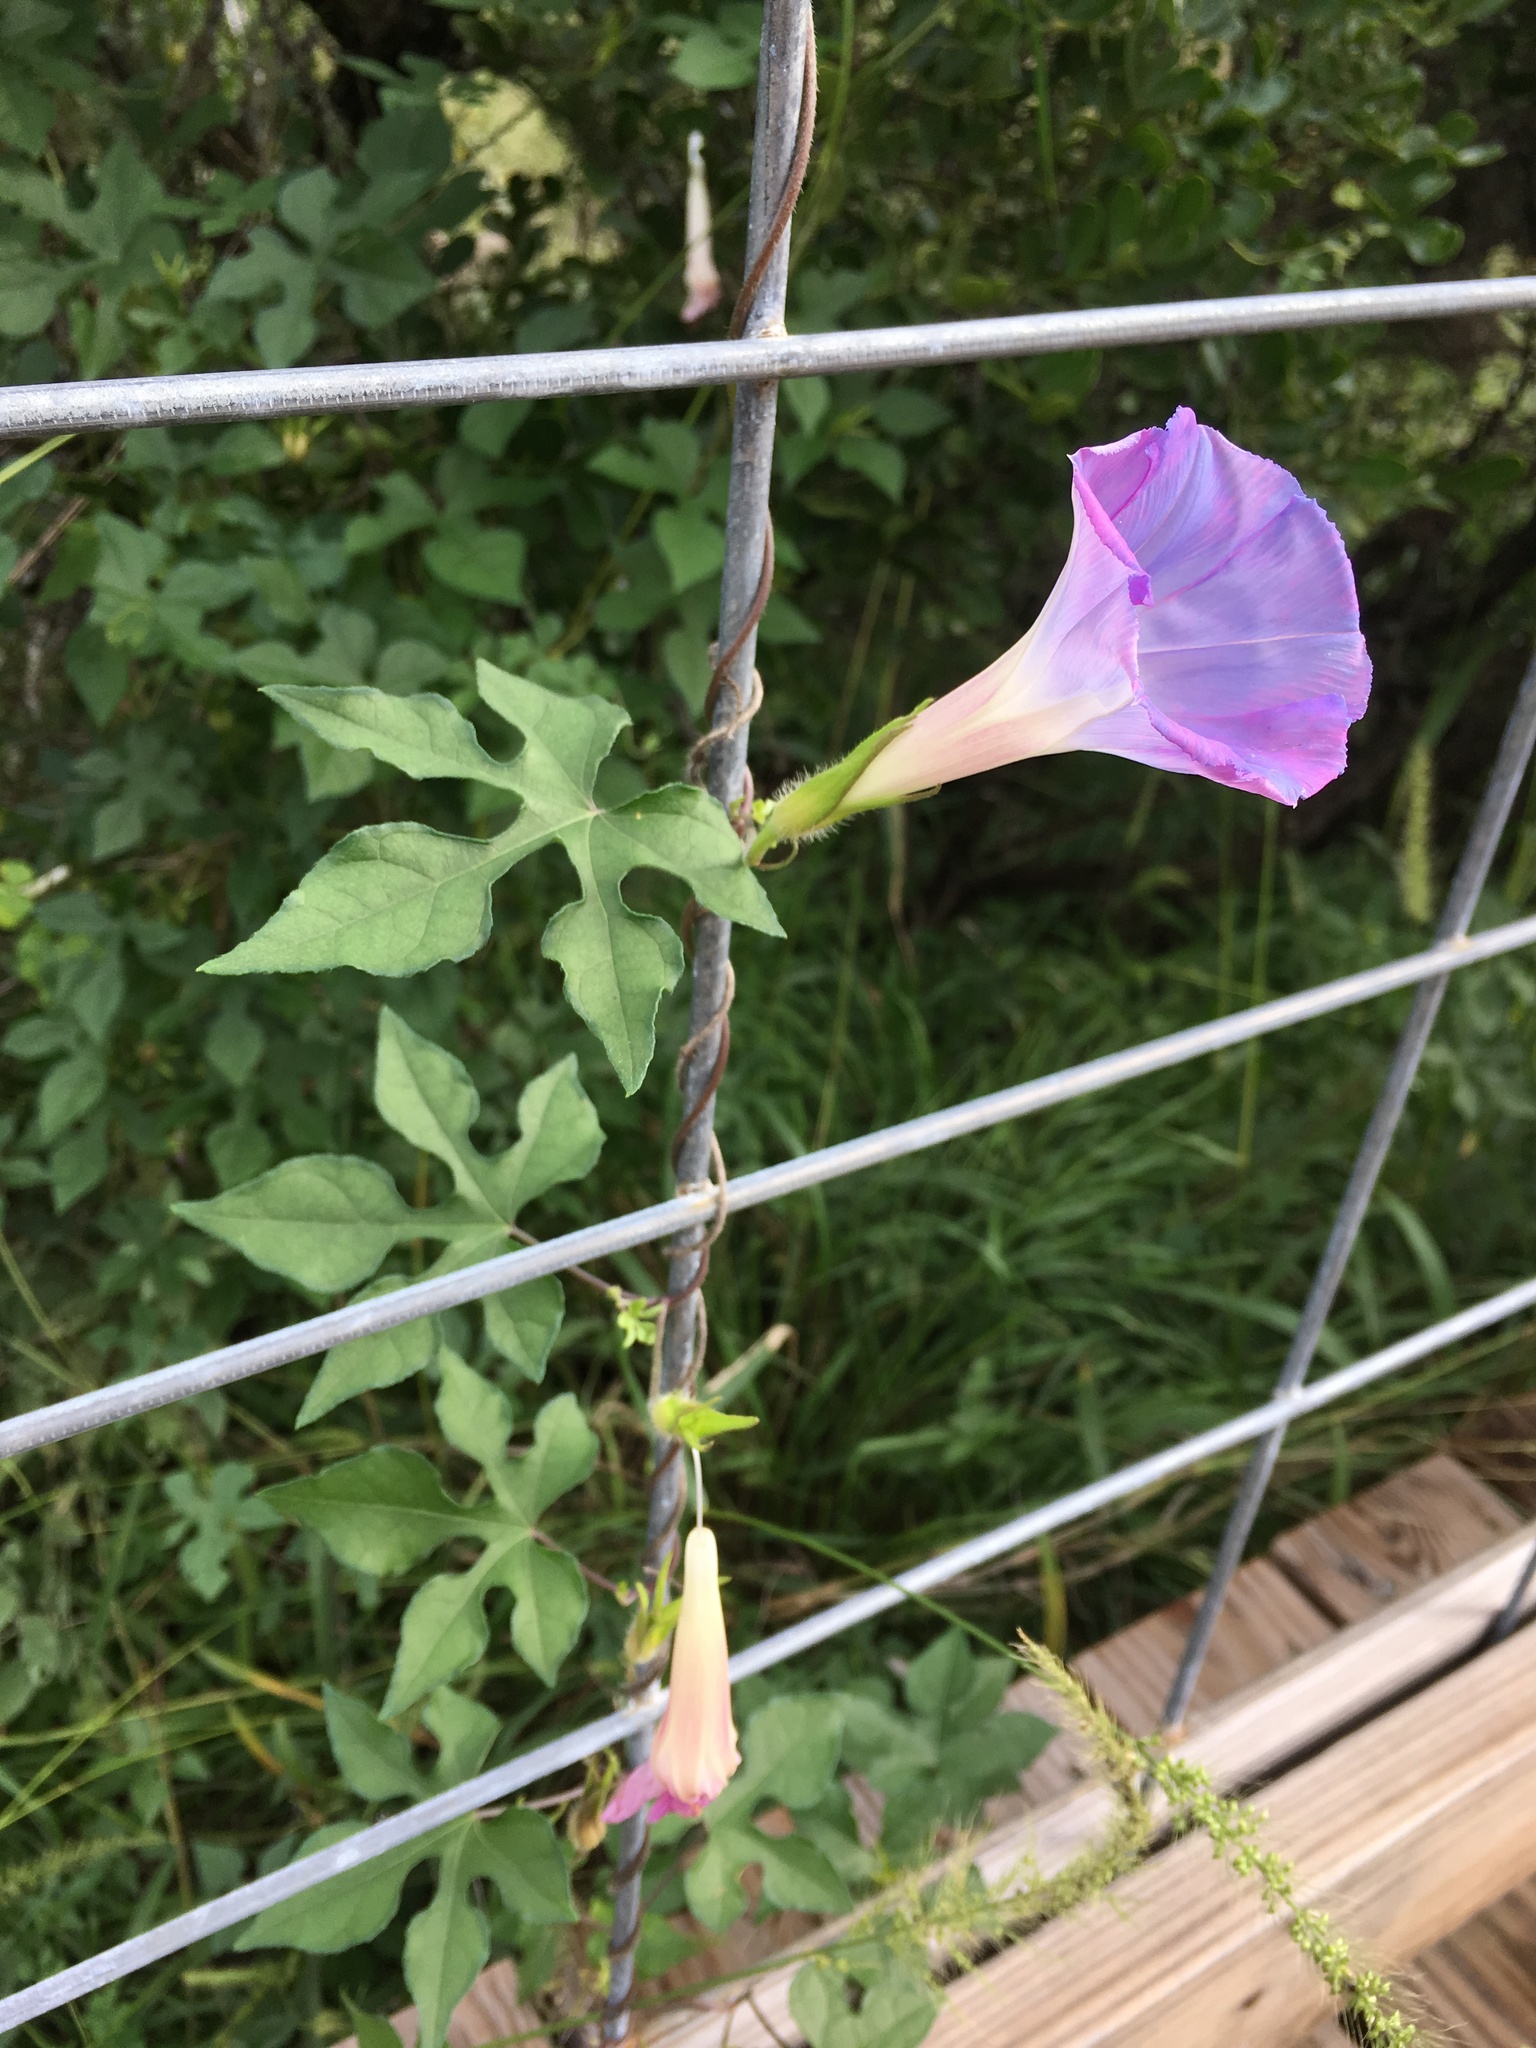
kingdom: Plantae
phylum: Tracheophyta
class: Magnoliopsida
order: Solanales
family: Convolvulaceae
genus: Ipomoea
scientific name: Ipomoea lindheimeri
